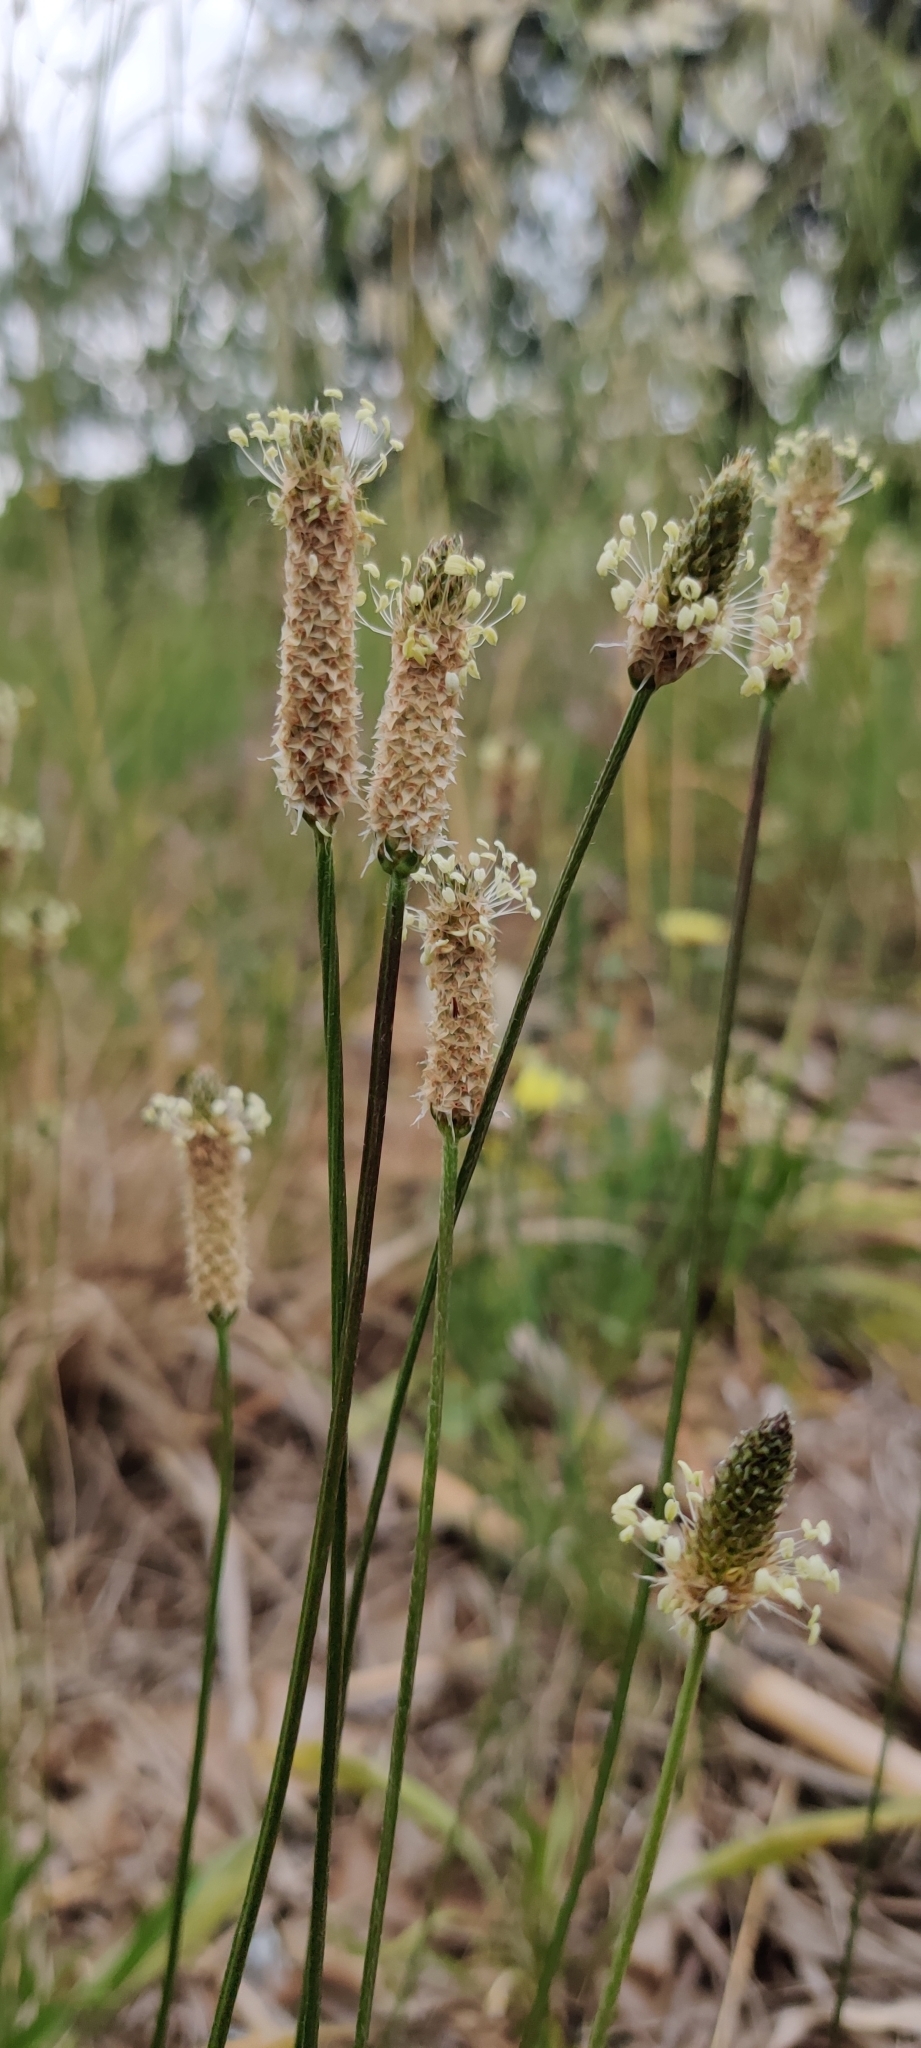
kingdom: Plantae
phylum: Tracheophyta
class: Magnoliopsida
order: Lamiales
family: Plantaginaceae
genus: Plantago
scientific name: Plantago lanceolata
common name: Ribwort plantain
